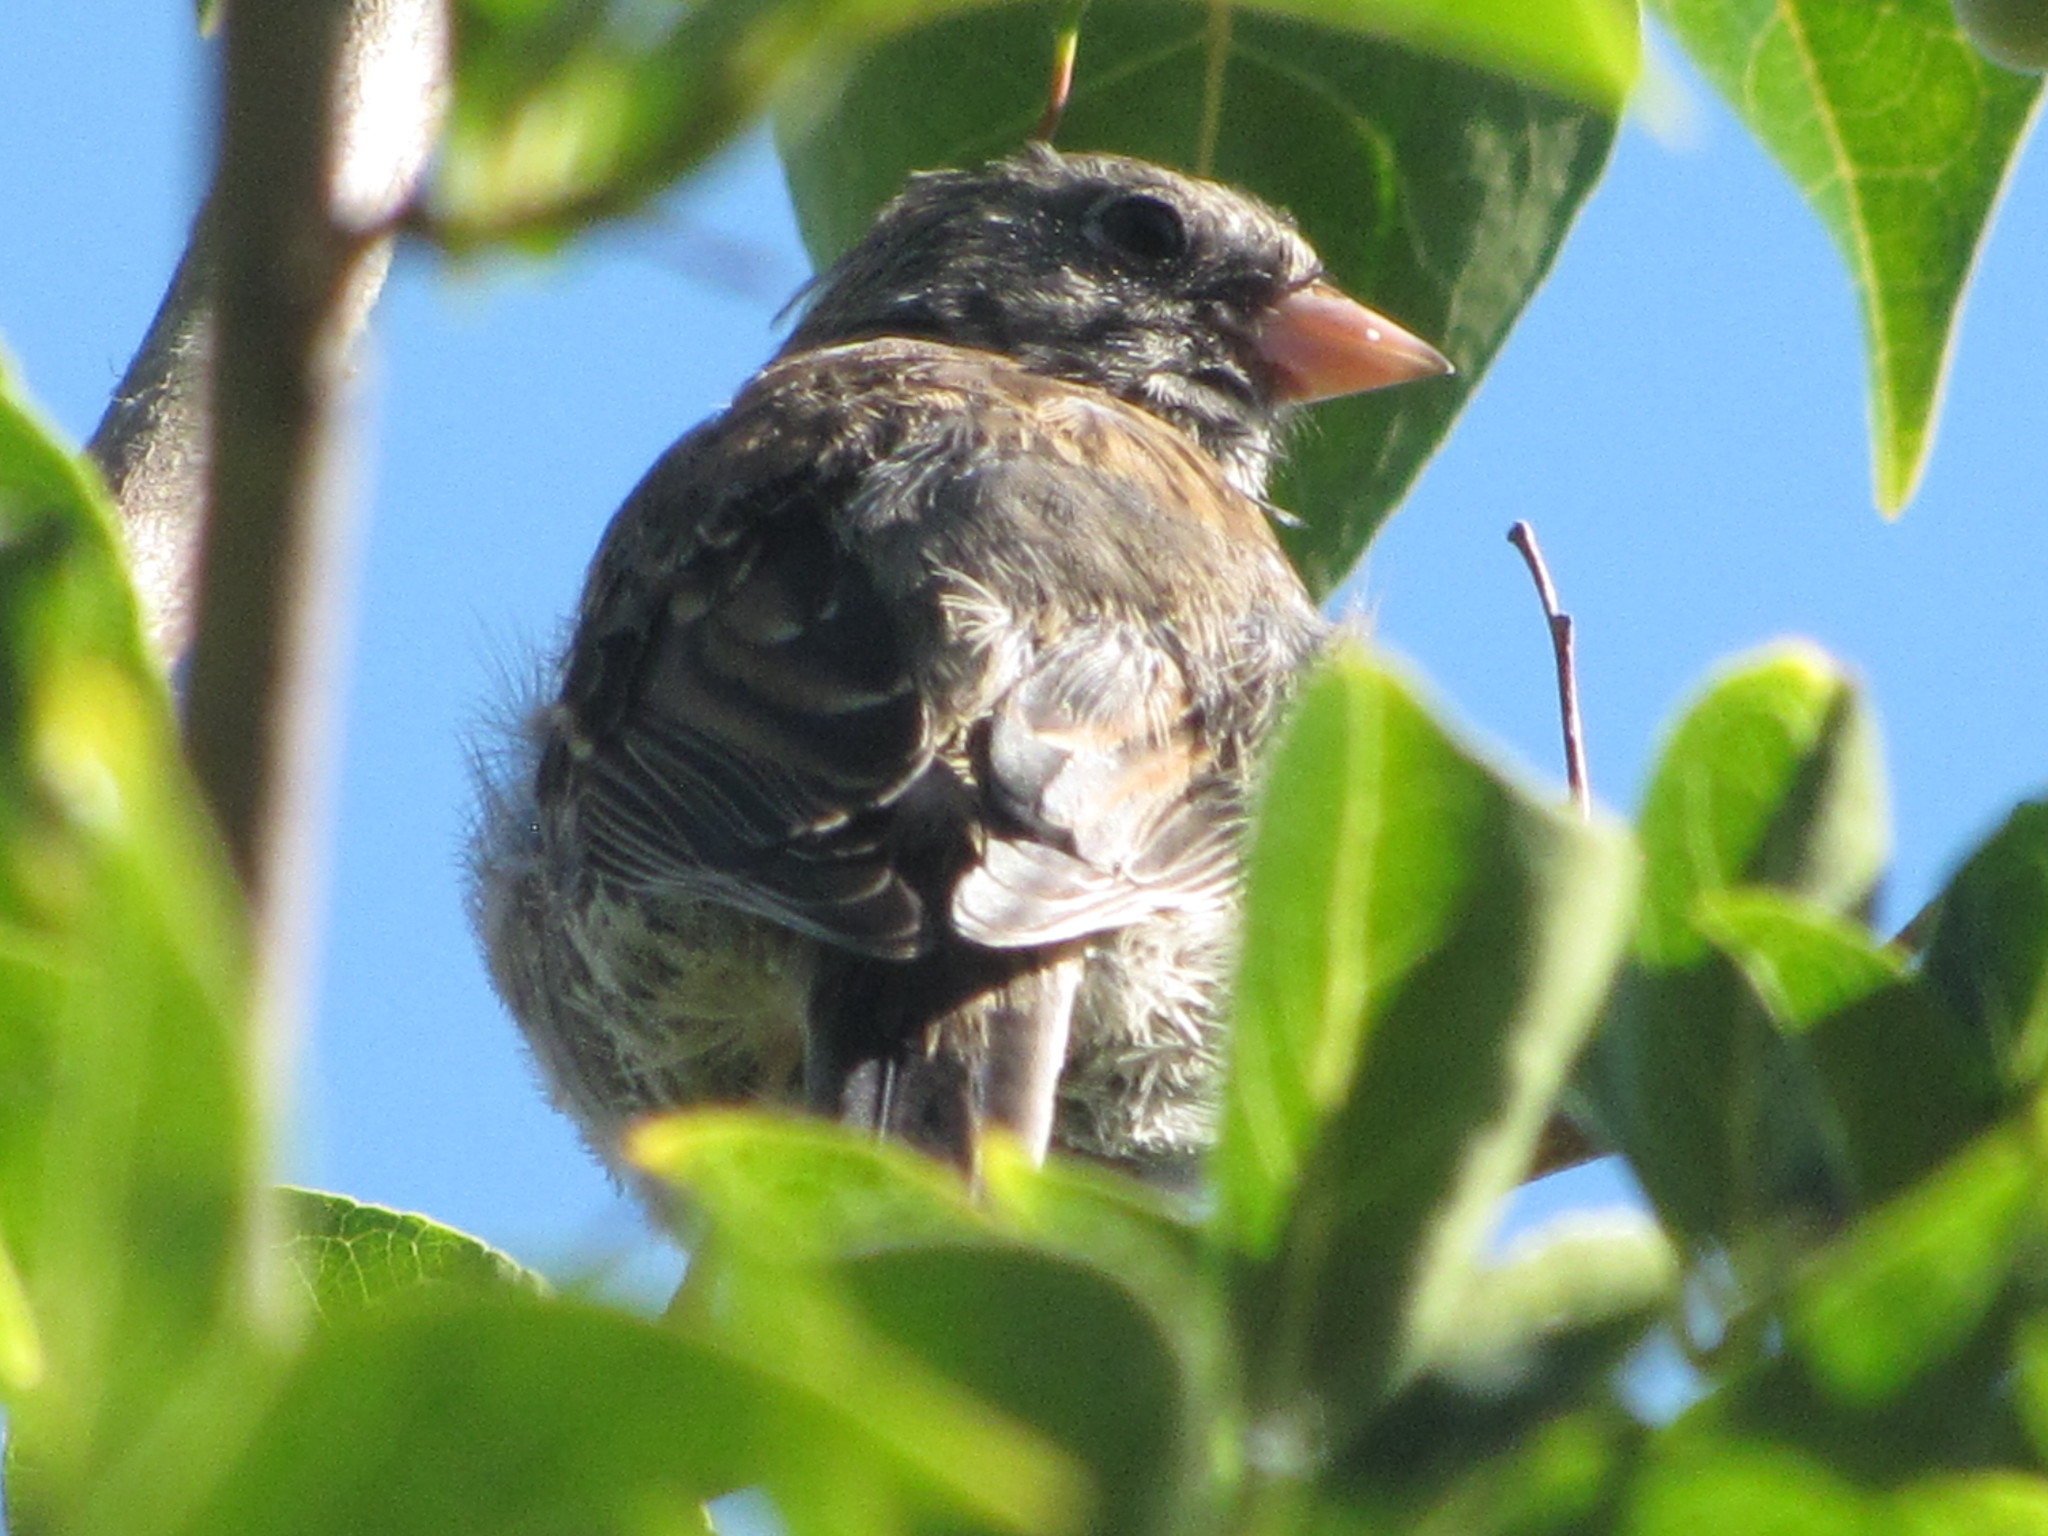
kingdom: Animalia
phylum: Chordata
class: Aves
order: Passeriformes
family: Passerellidae
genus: Junco
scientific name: Junco hyemalis
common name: Dark-eyed junco
